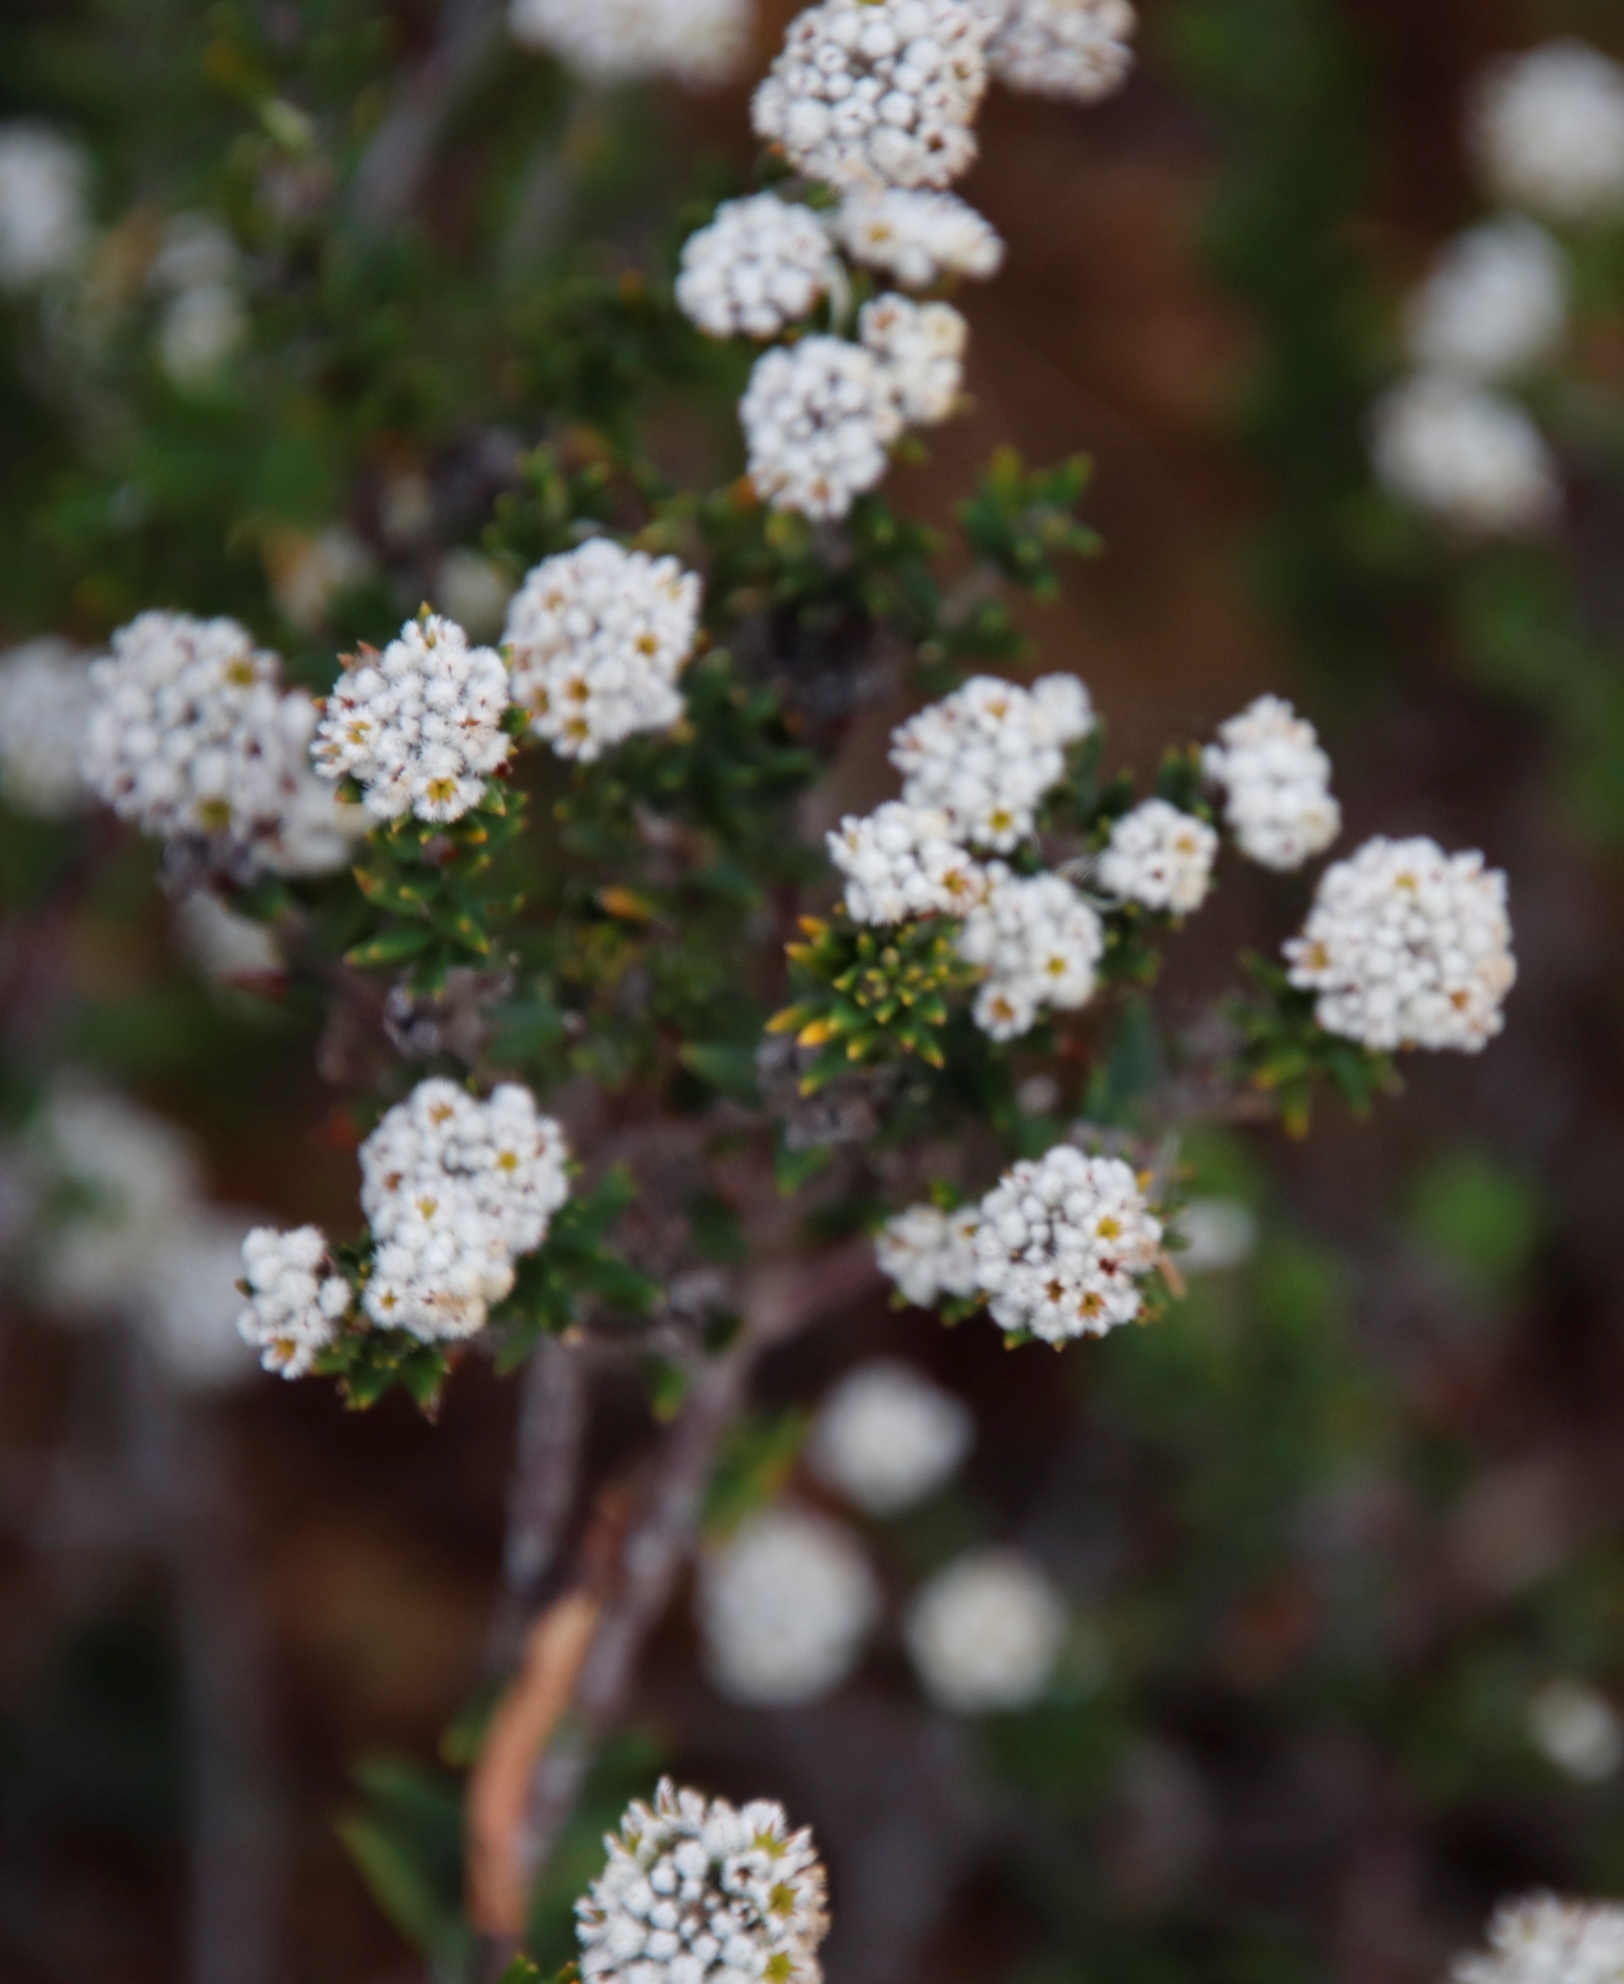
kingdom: Plantae
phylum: Tracheophyta
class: Magnoliopsida
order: Rosales
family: Rhamnaceae
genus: Phylica
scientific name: Phylica callosa
